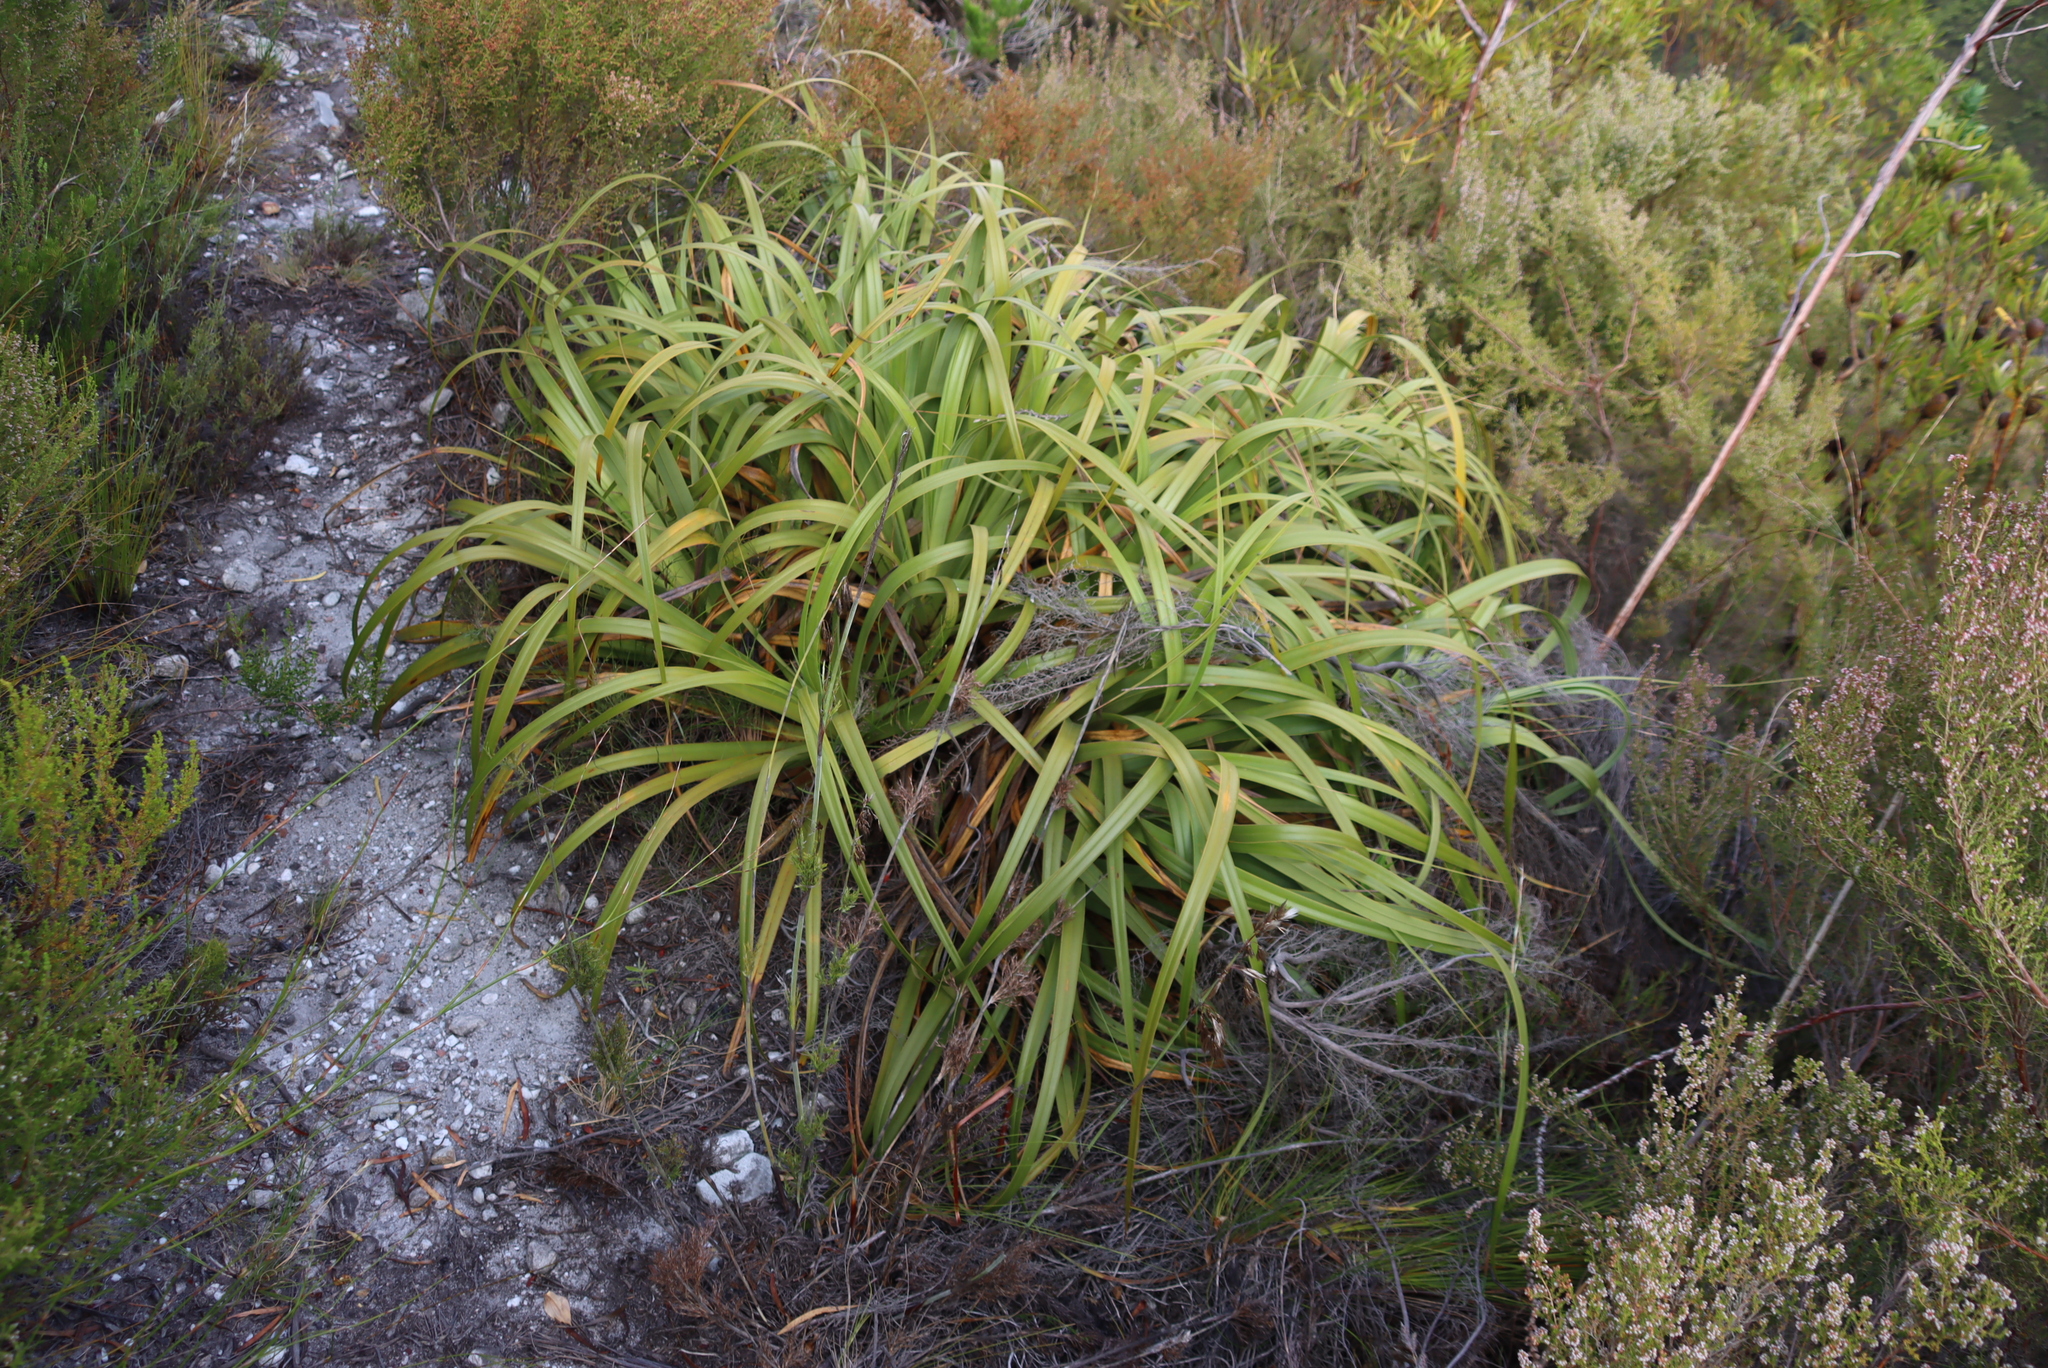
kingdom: Plantae
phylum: Tracheophyta
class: Liliopsida
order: Poales
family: Cyperaceae
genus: Tetraria
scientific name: Tetraria thermalis
